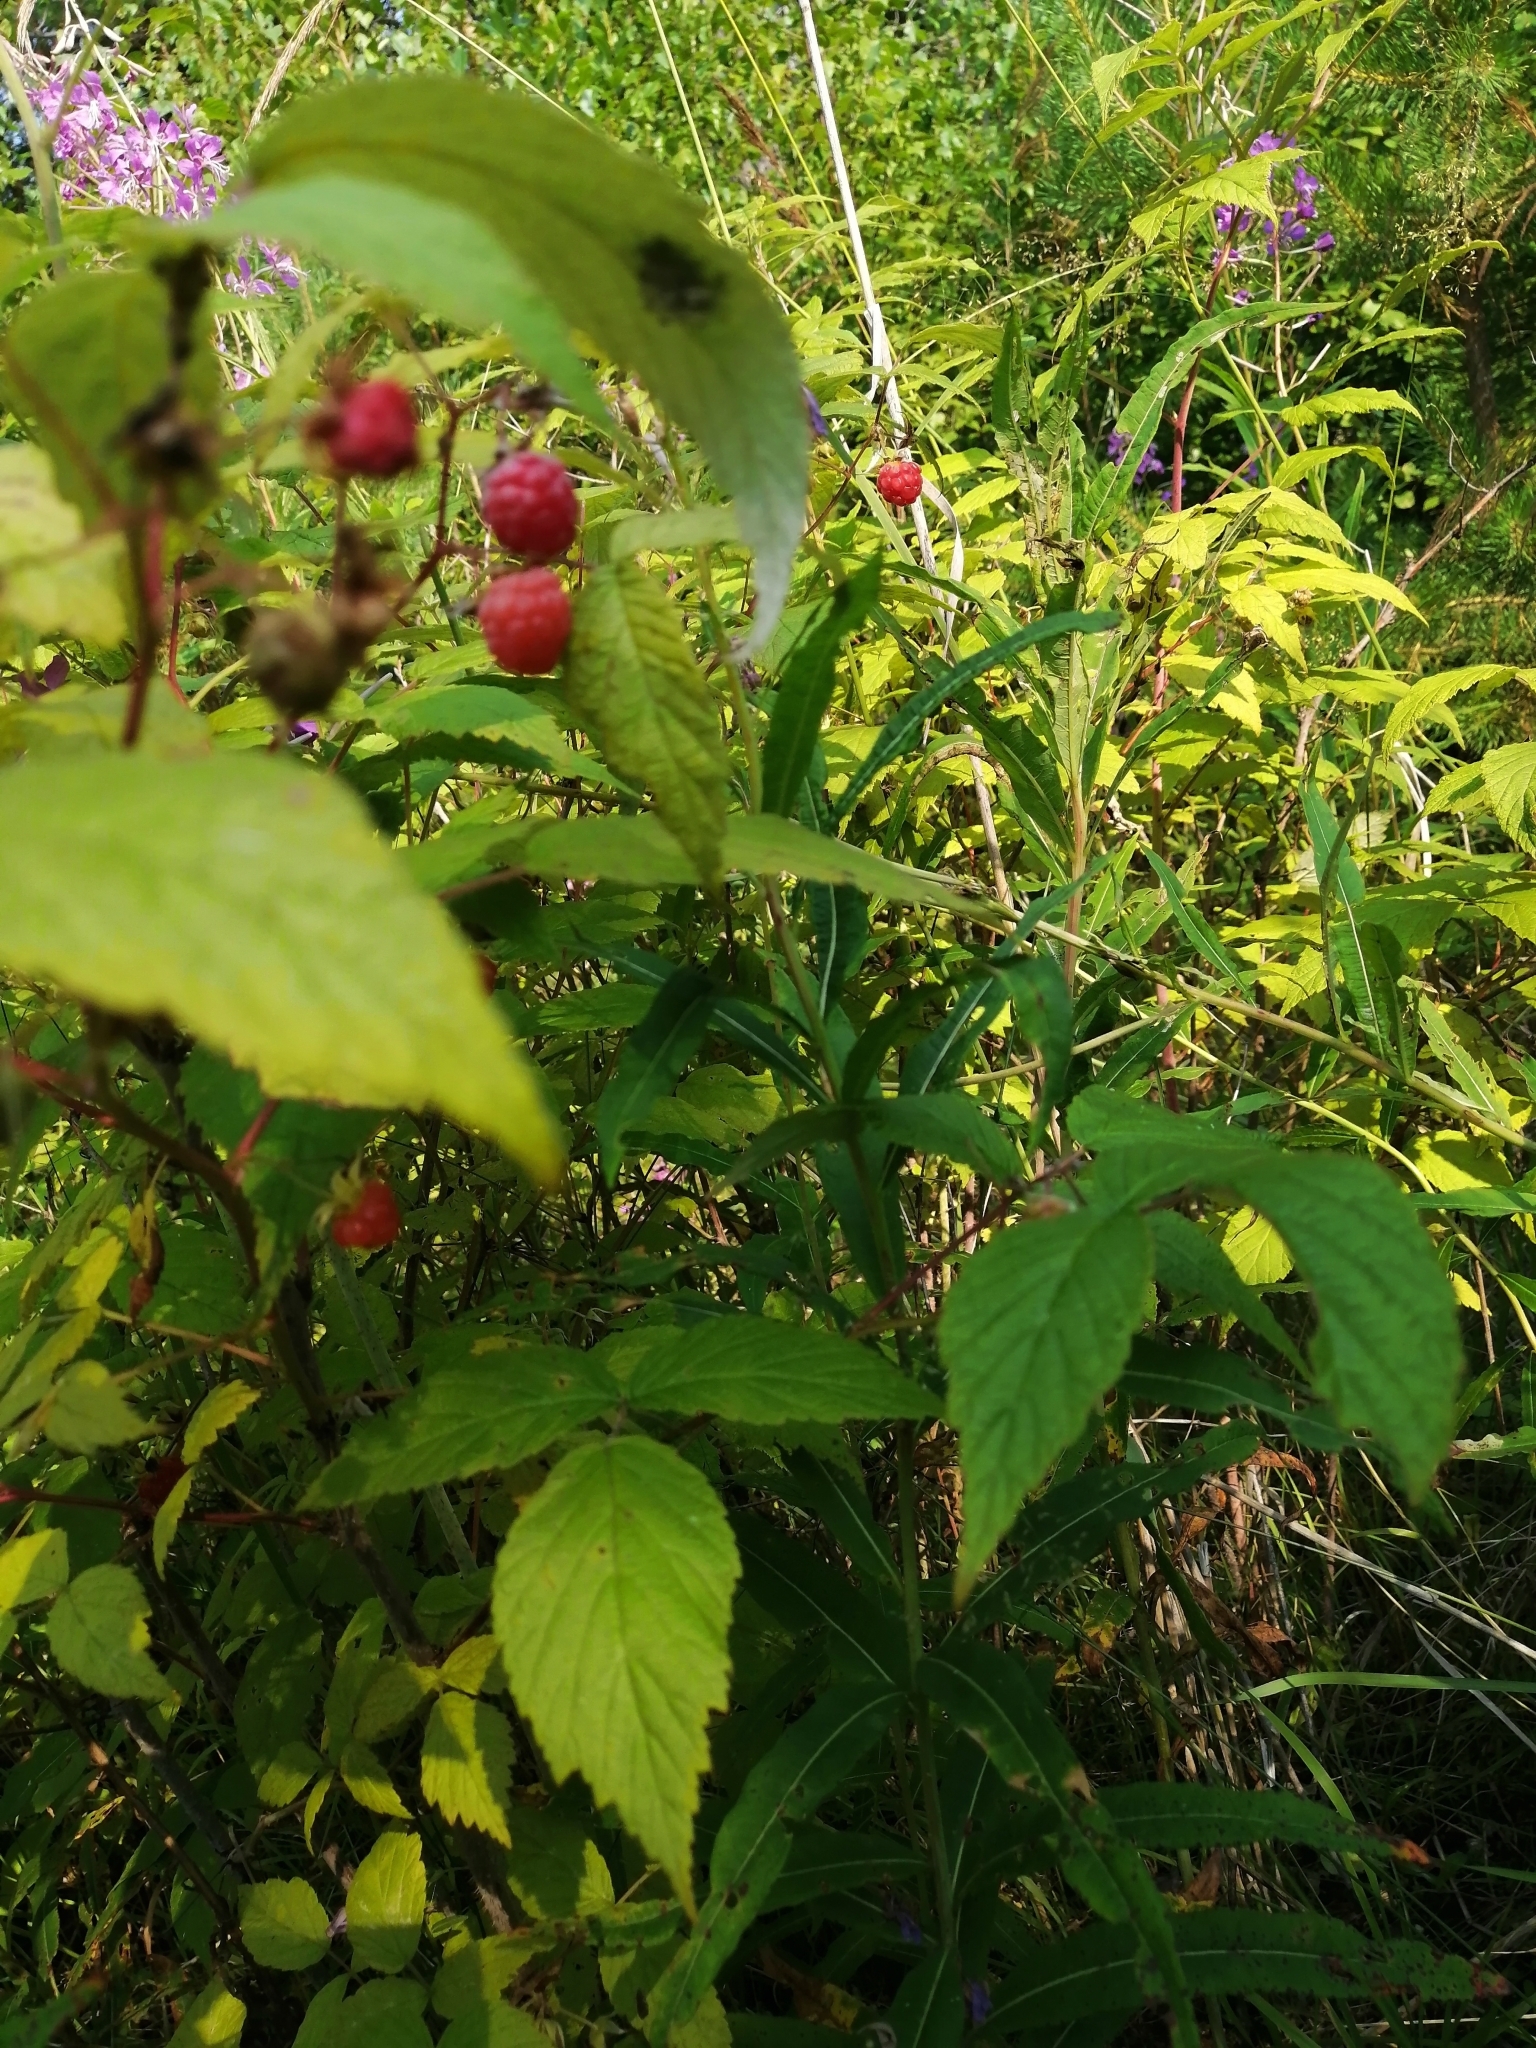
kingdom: Plantae
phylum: Tracheophyta
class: Magnoliopsida
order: Rosales
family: Rosaceae
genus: Rubus
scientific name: Rubus idaeus
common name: Raspberry
